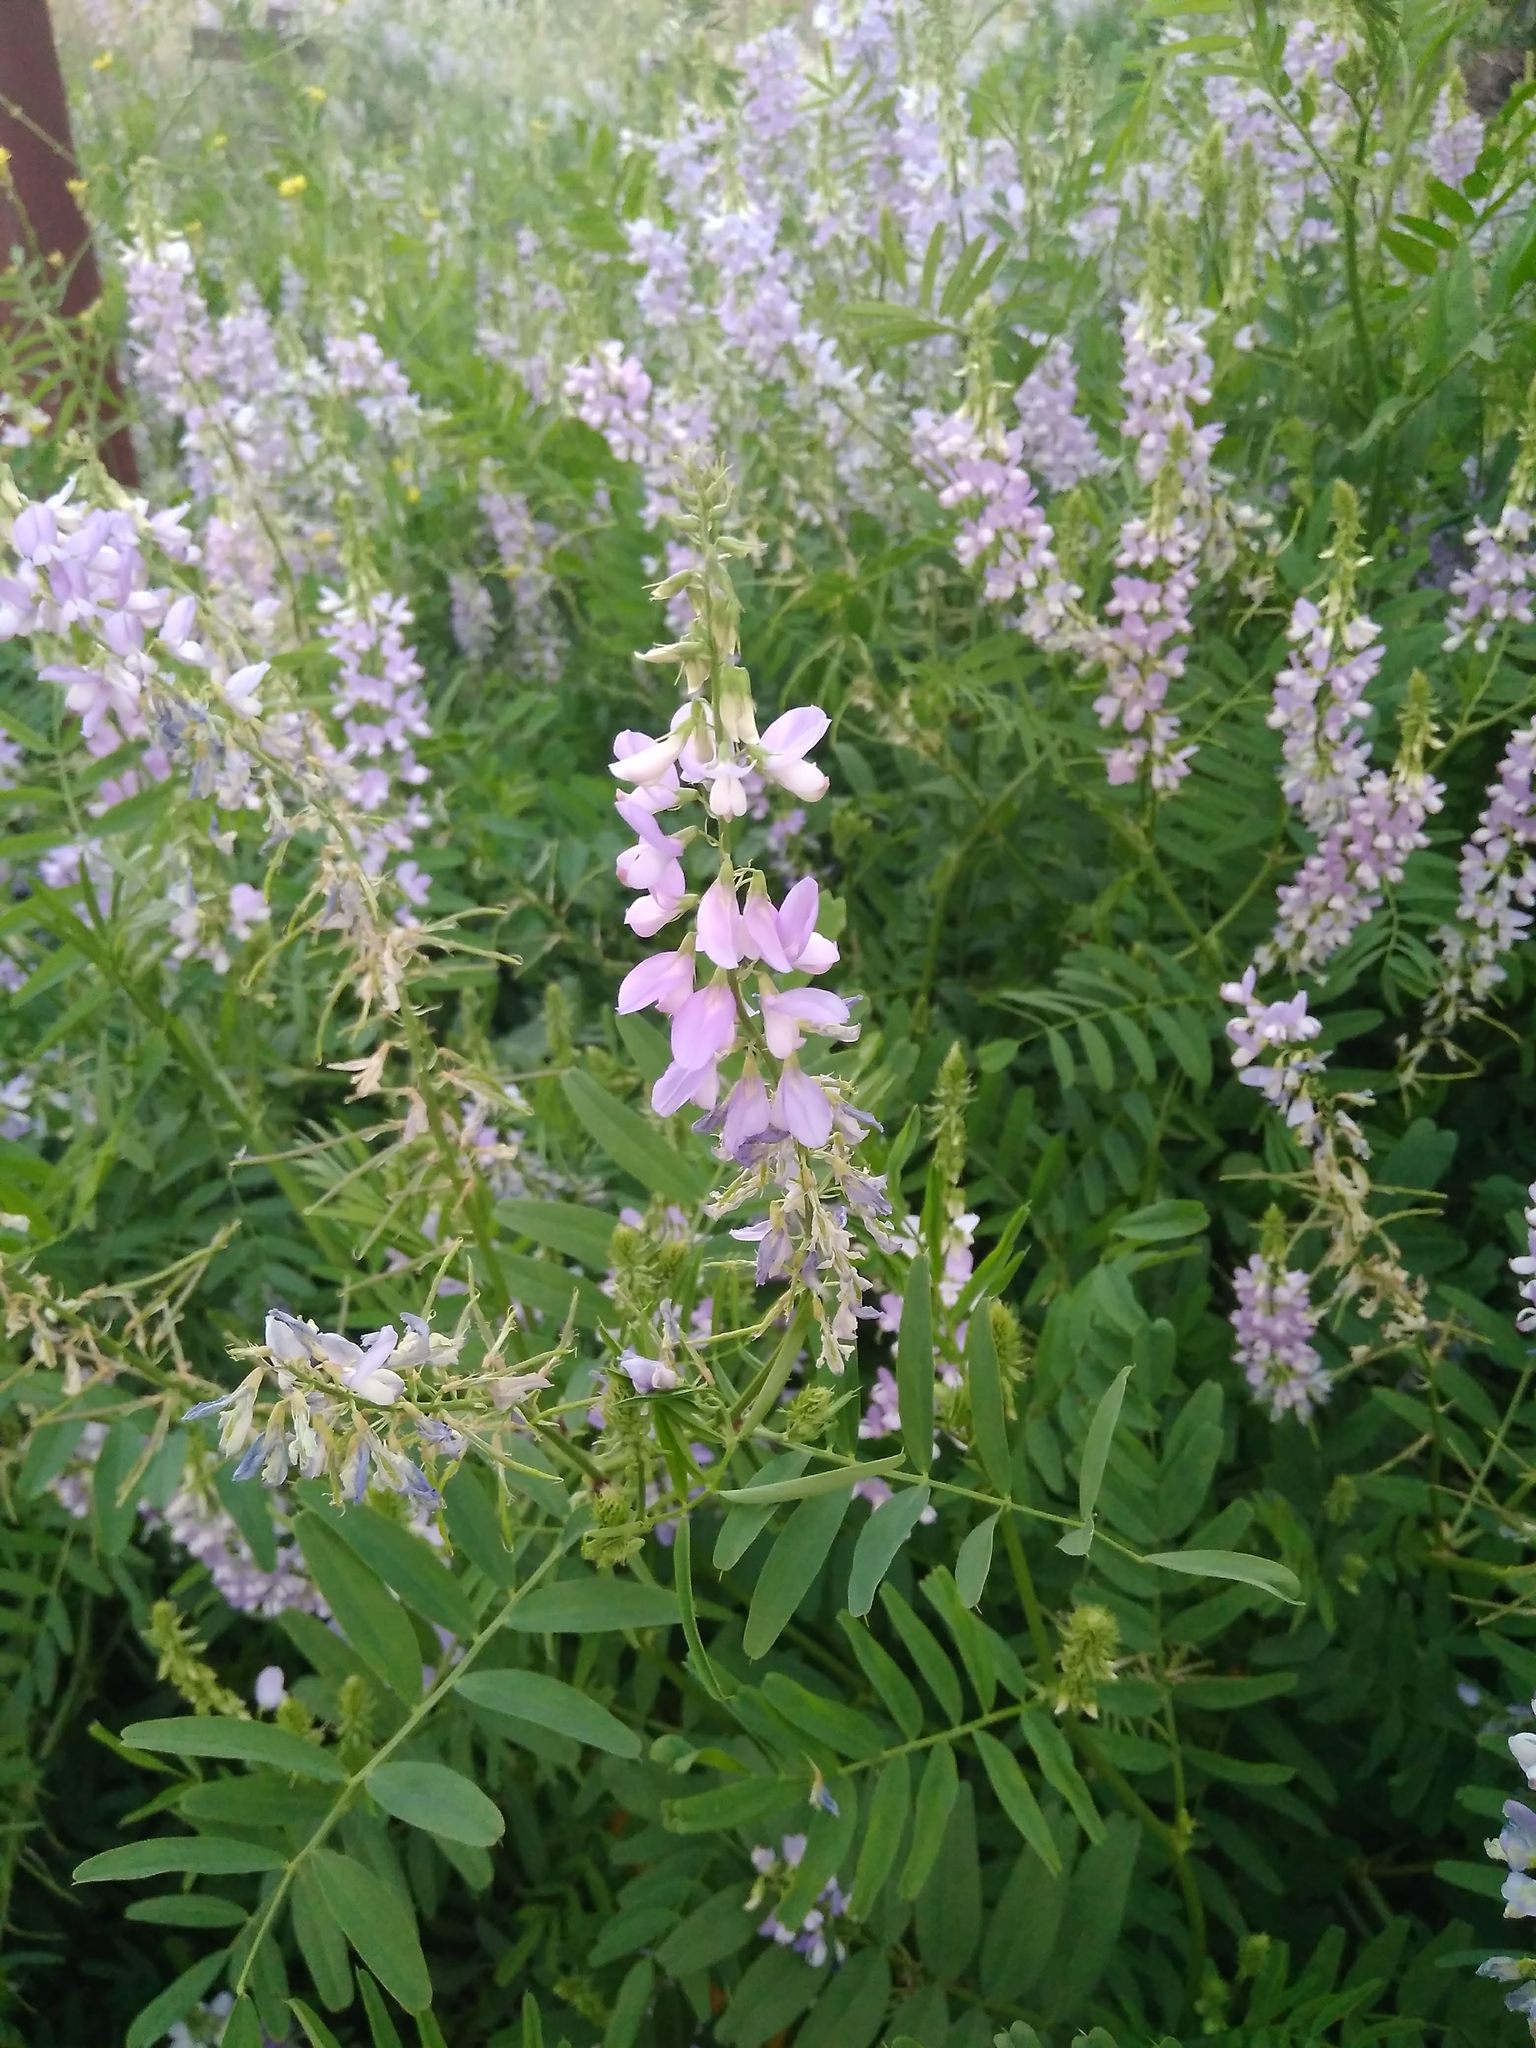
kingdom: Plantae
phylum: Tracheophyta
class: Magnoliopsida
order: Fabales
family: Fabaceae
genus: Galega
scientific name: Galega officinalis
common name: Goat's-rue
